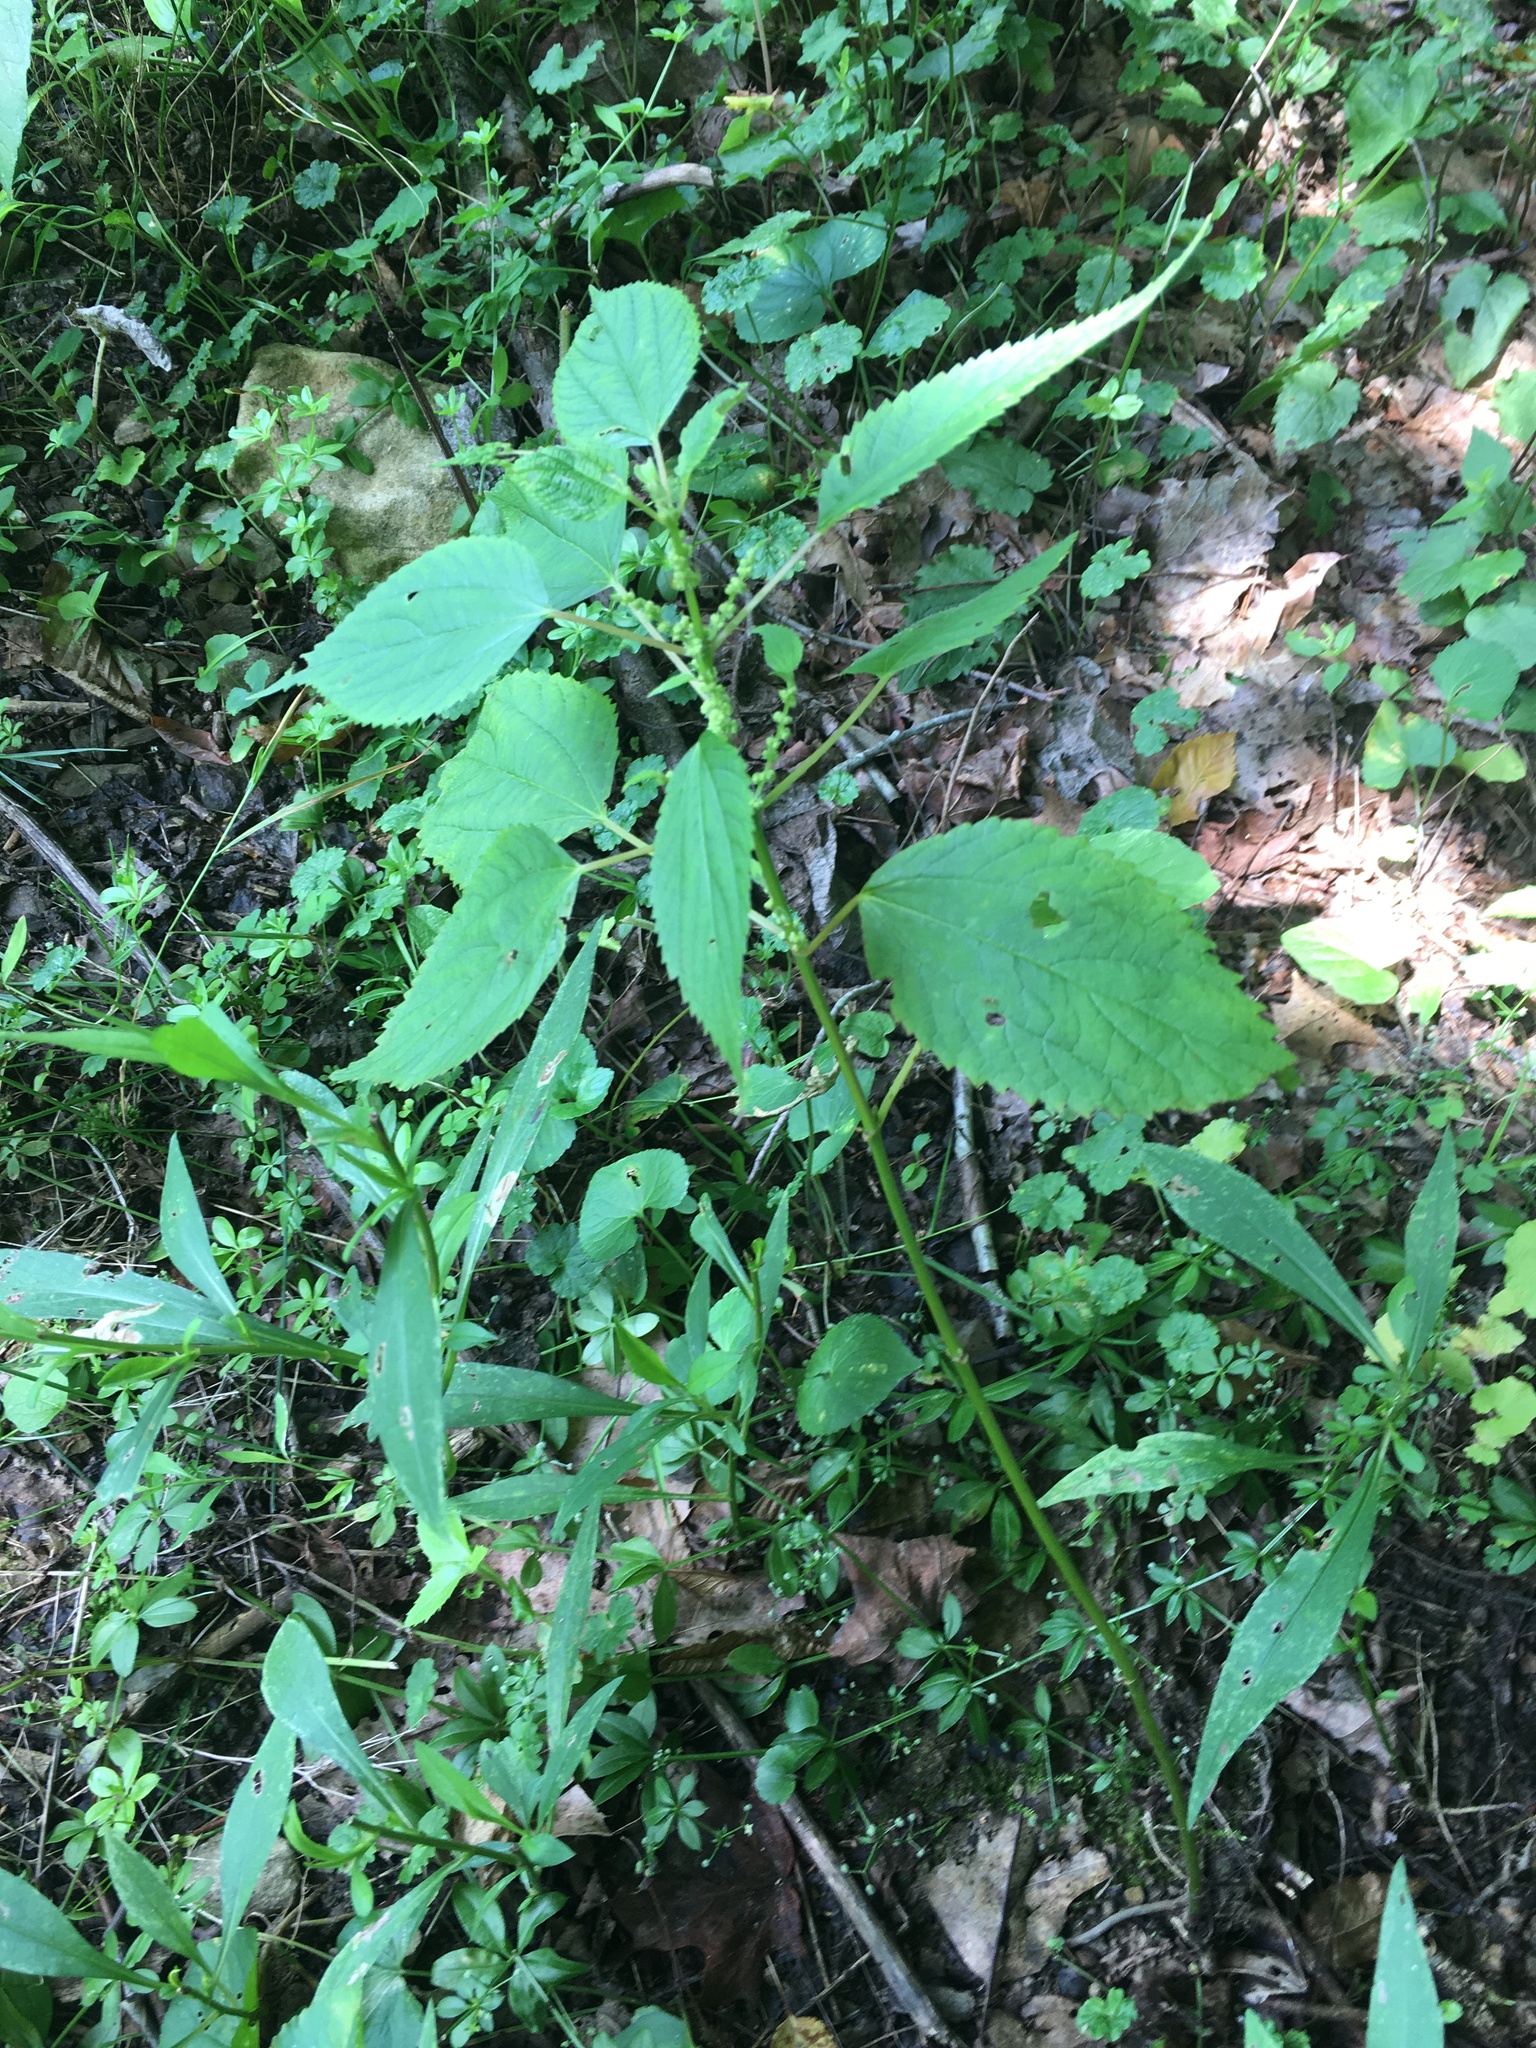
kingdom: Plantae
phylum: Tracheophyta
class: Magnoliopsida
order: Rosales
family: Urticaceae
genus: Boehmeria
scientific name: Boehmeria cylindrica
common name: Bog-hemp
